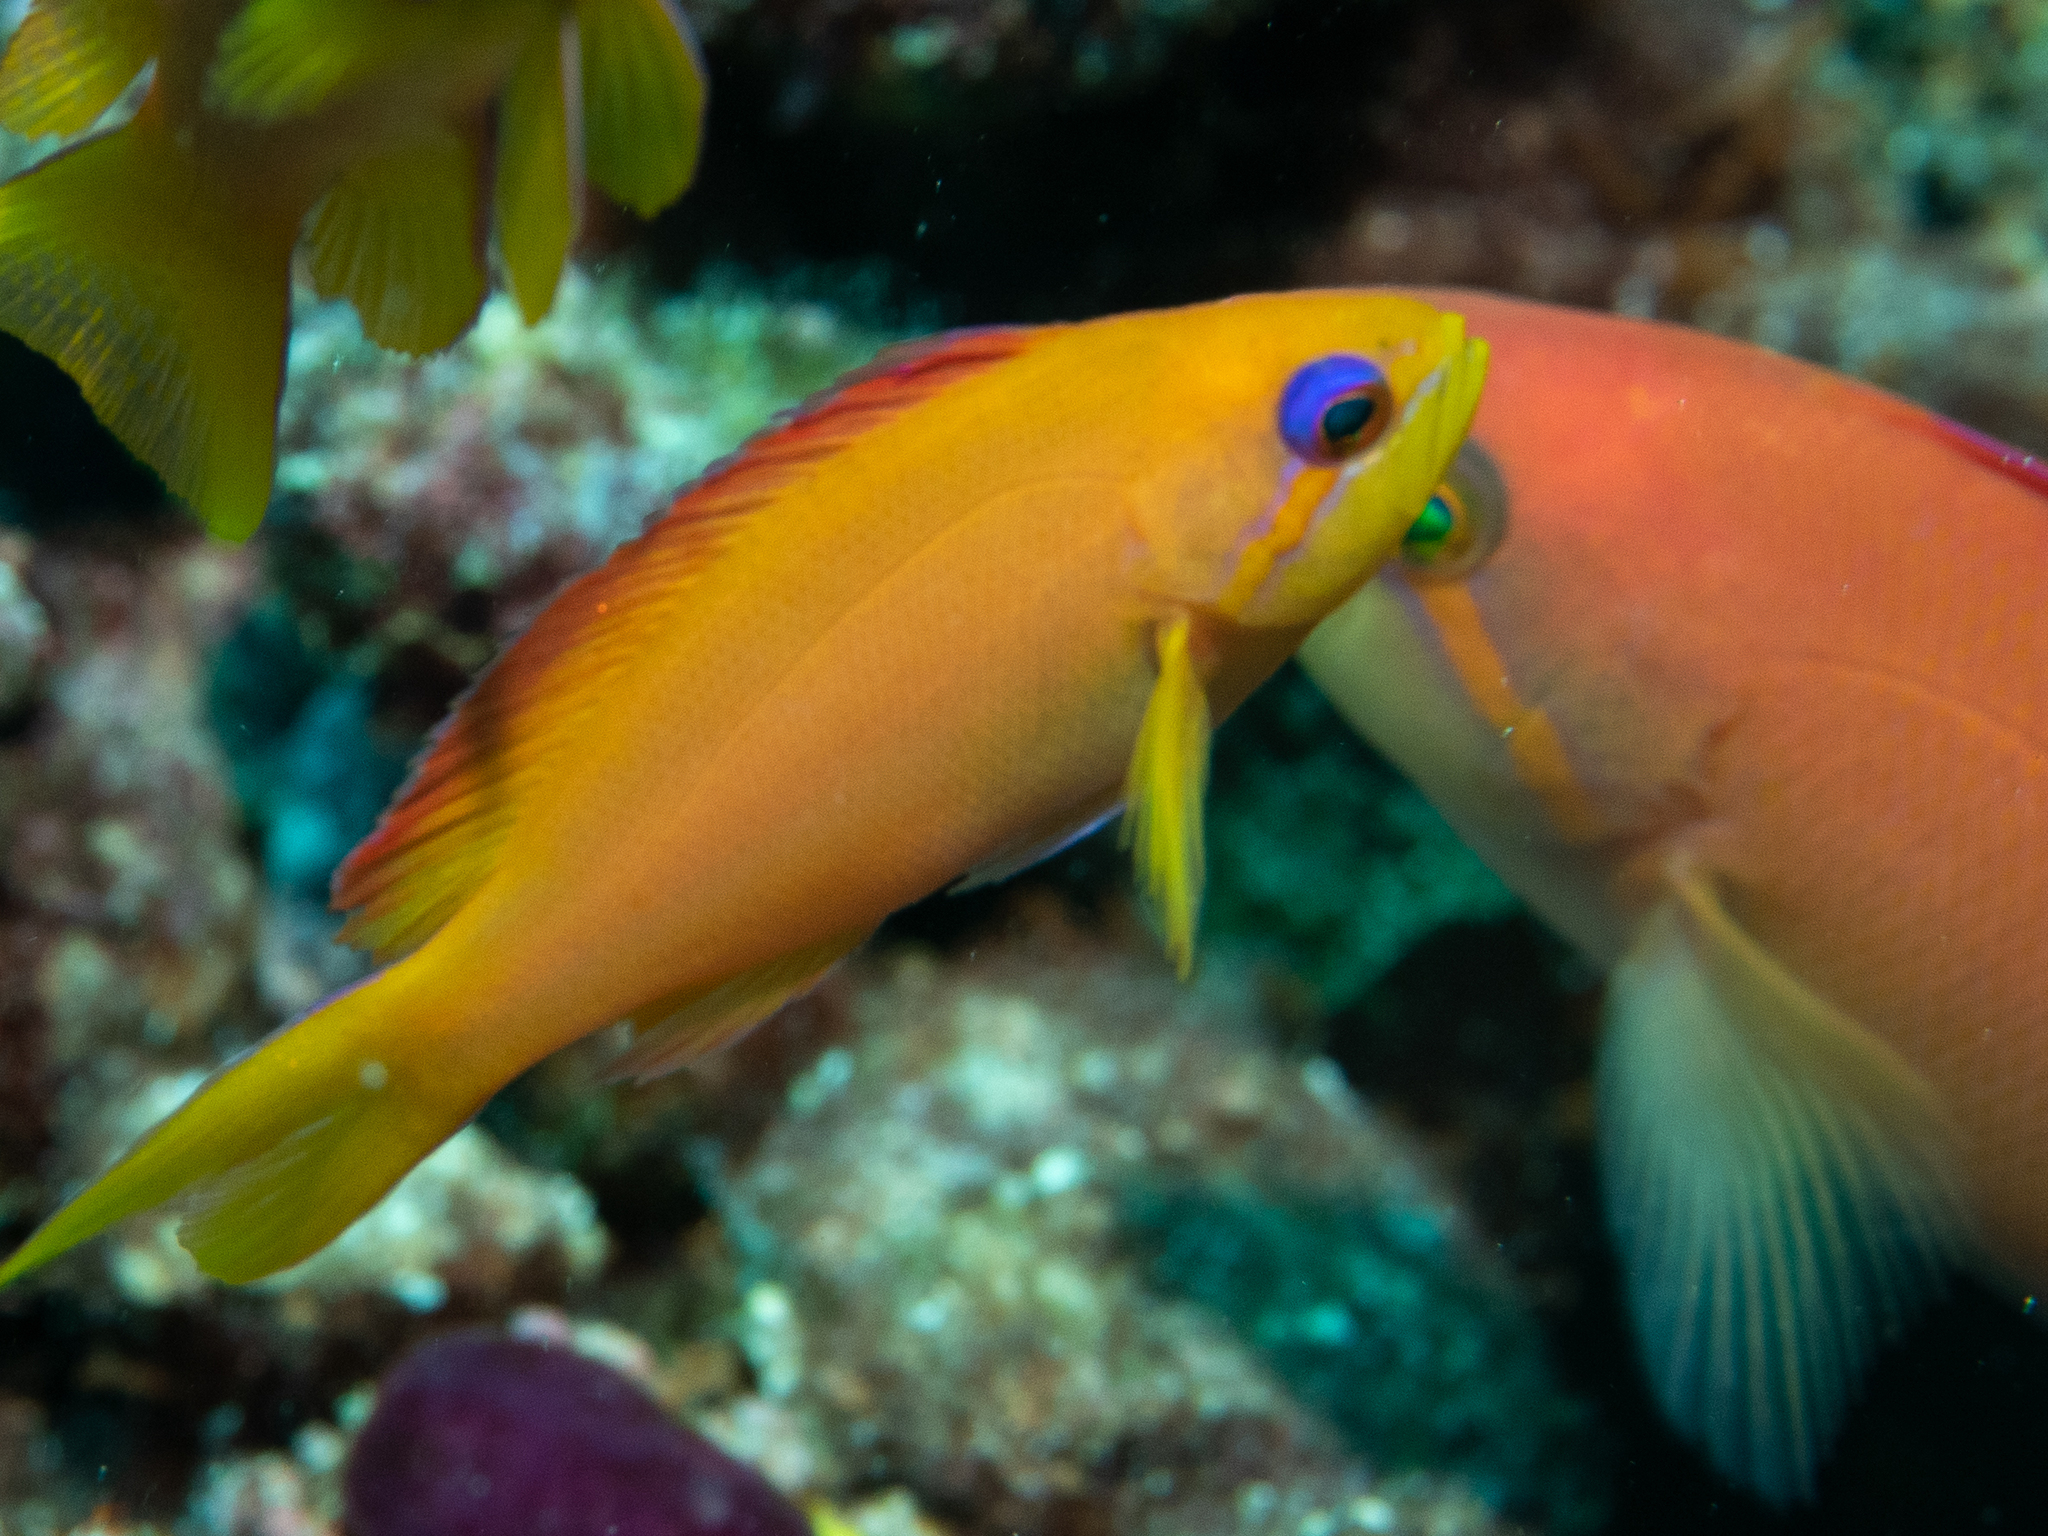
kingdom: Animalia
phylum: Chordata
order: Perciformes
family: Serranidae
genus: Nemanthias
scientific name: Nemanthias
